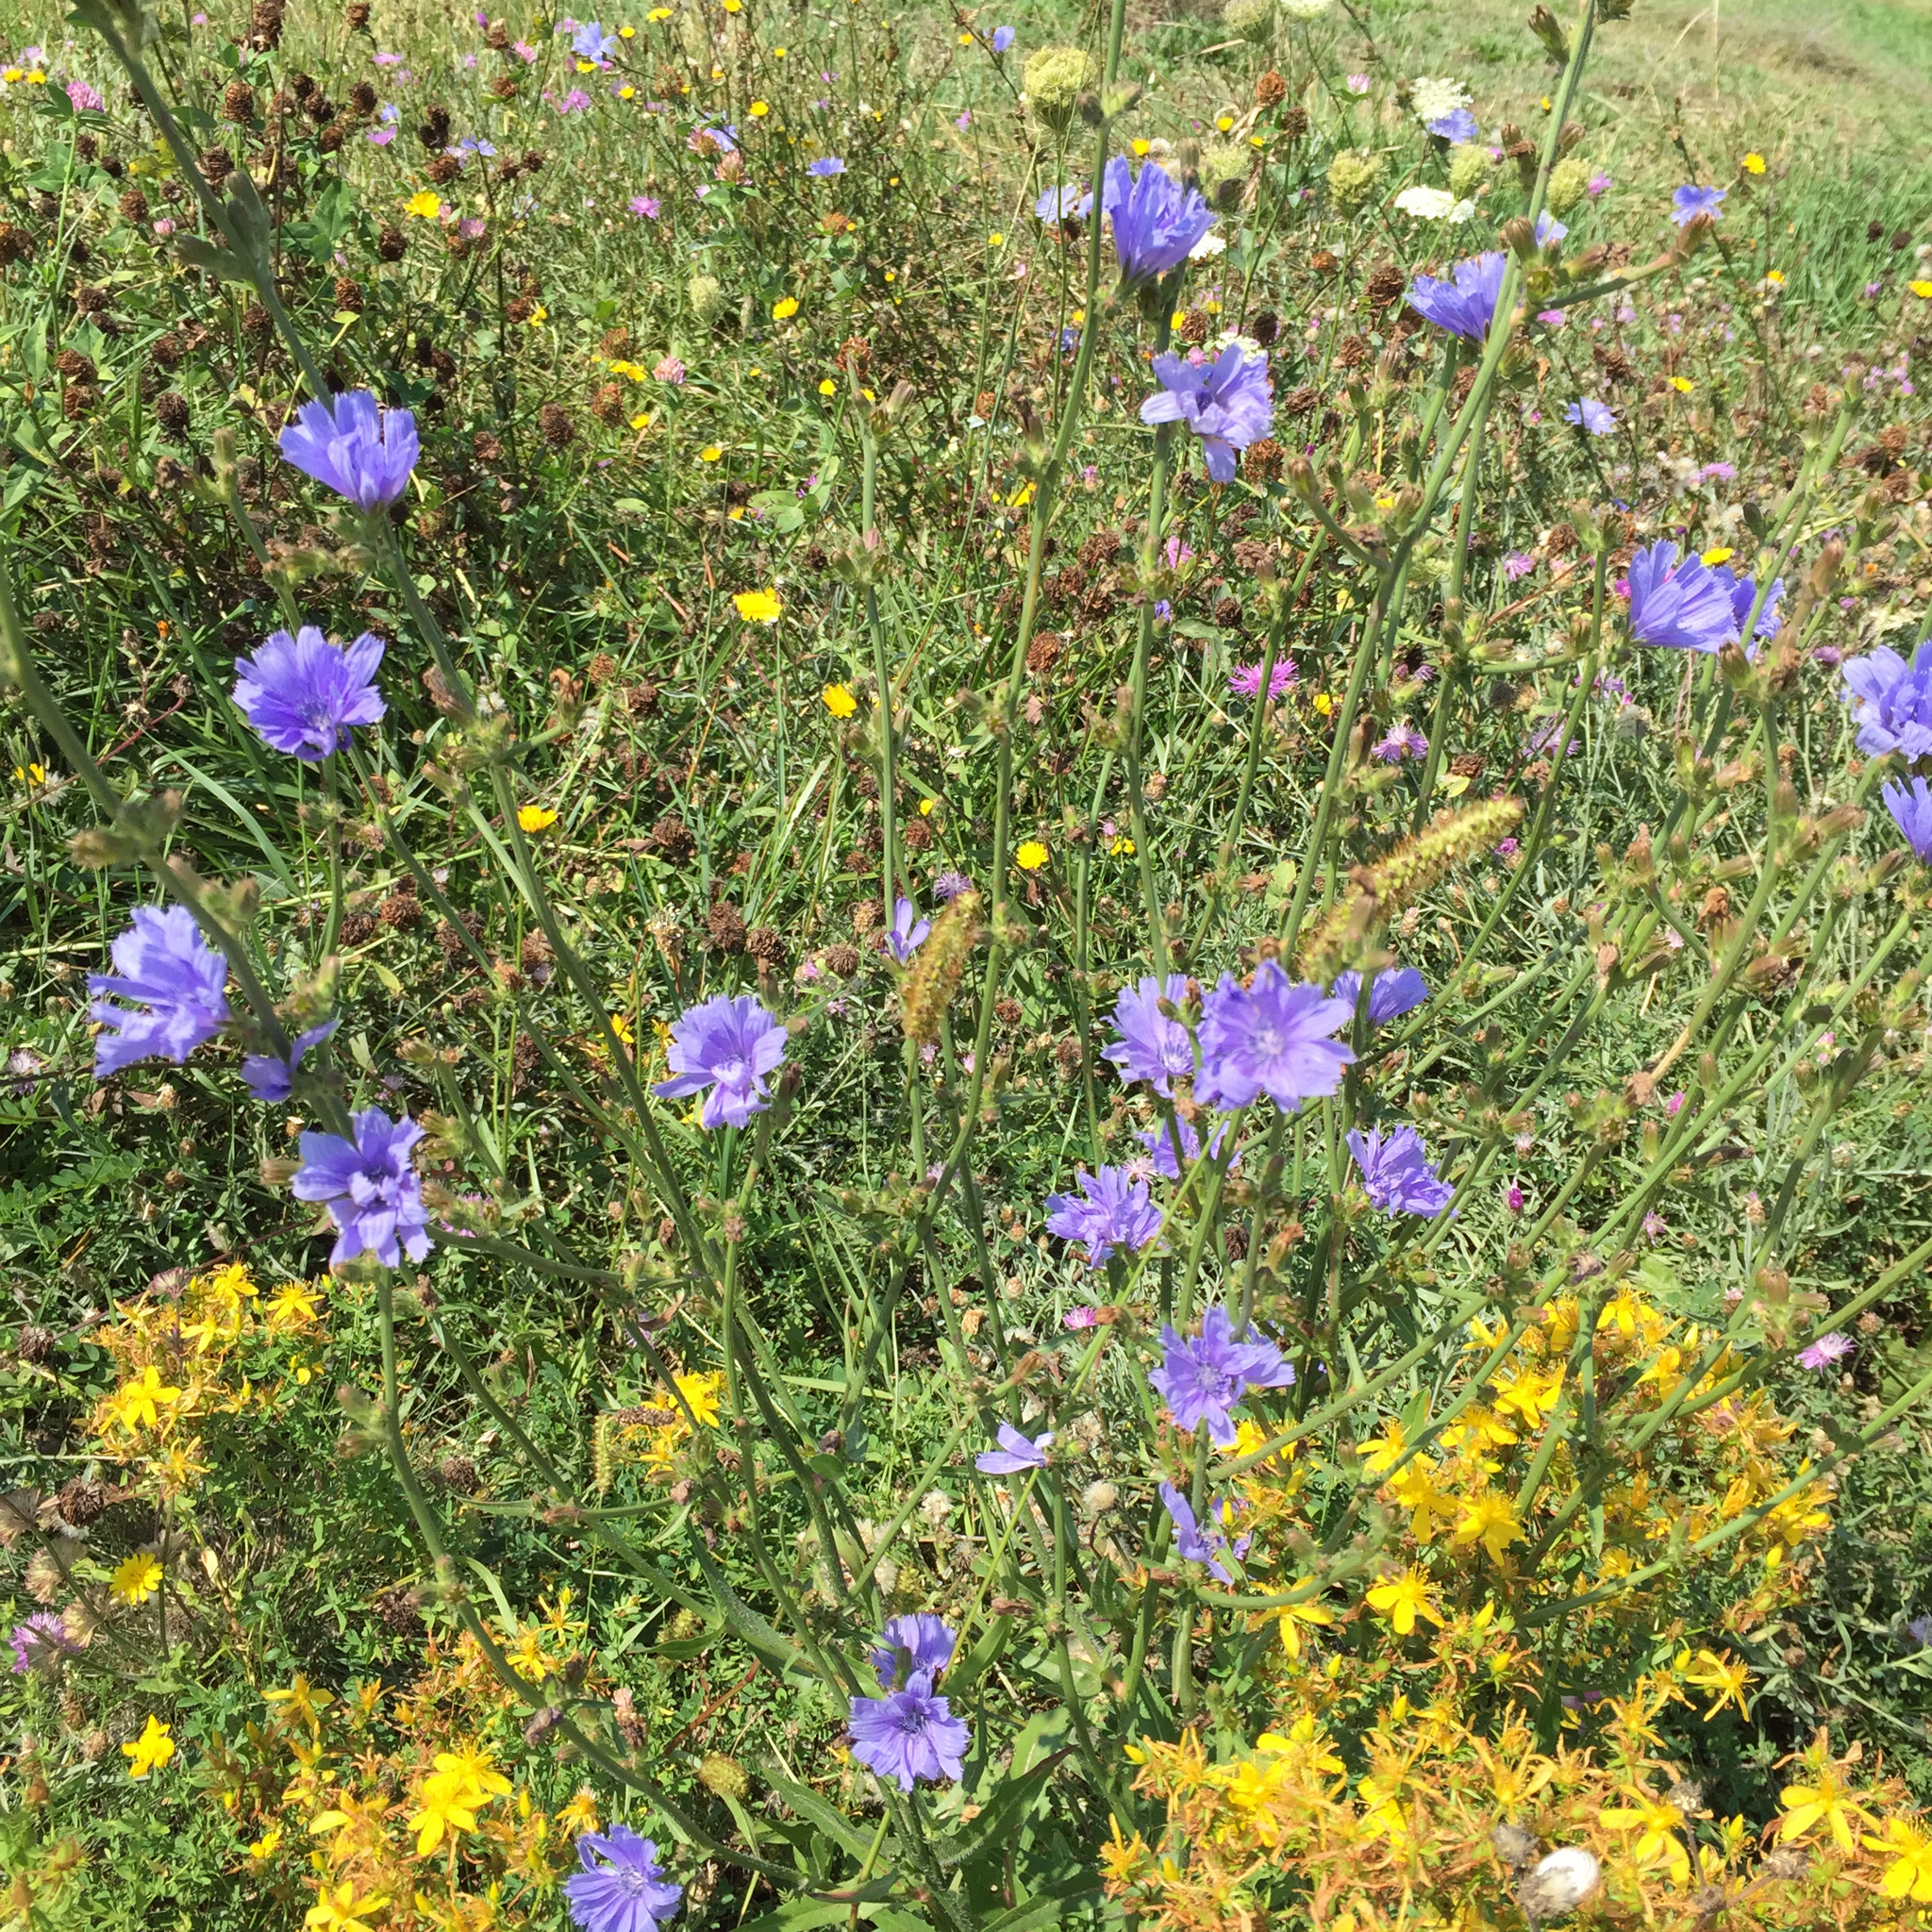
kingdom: Plantae
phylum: Tracheophyta
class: Magnoliopsida
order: Asterales
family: Asteraceae
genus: Cichorium
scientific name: Cichorium intybus
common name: Chicory
